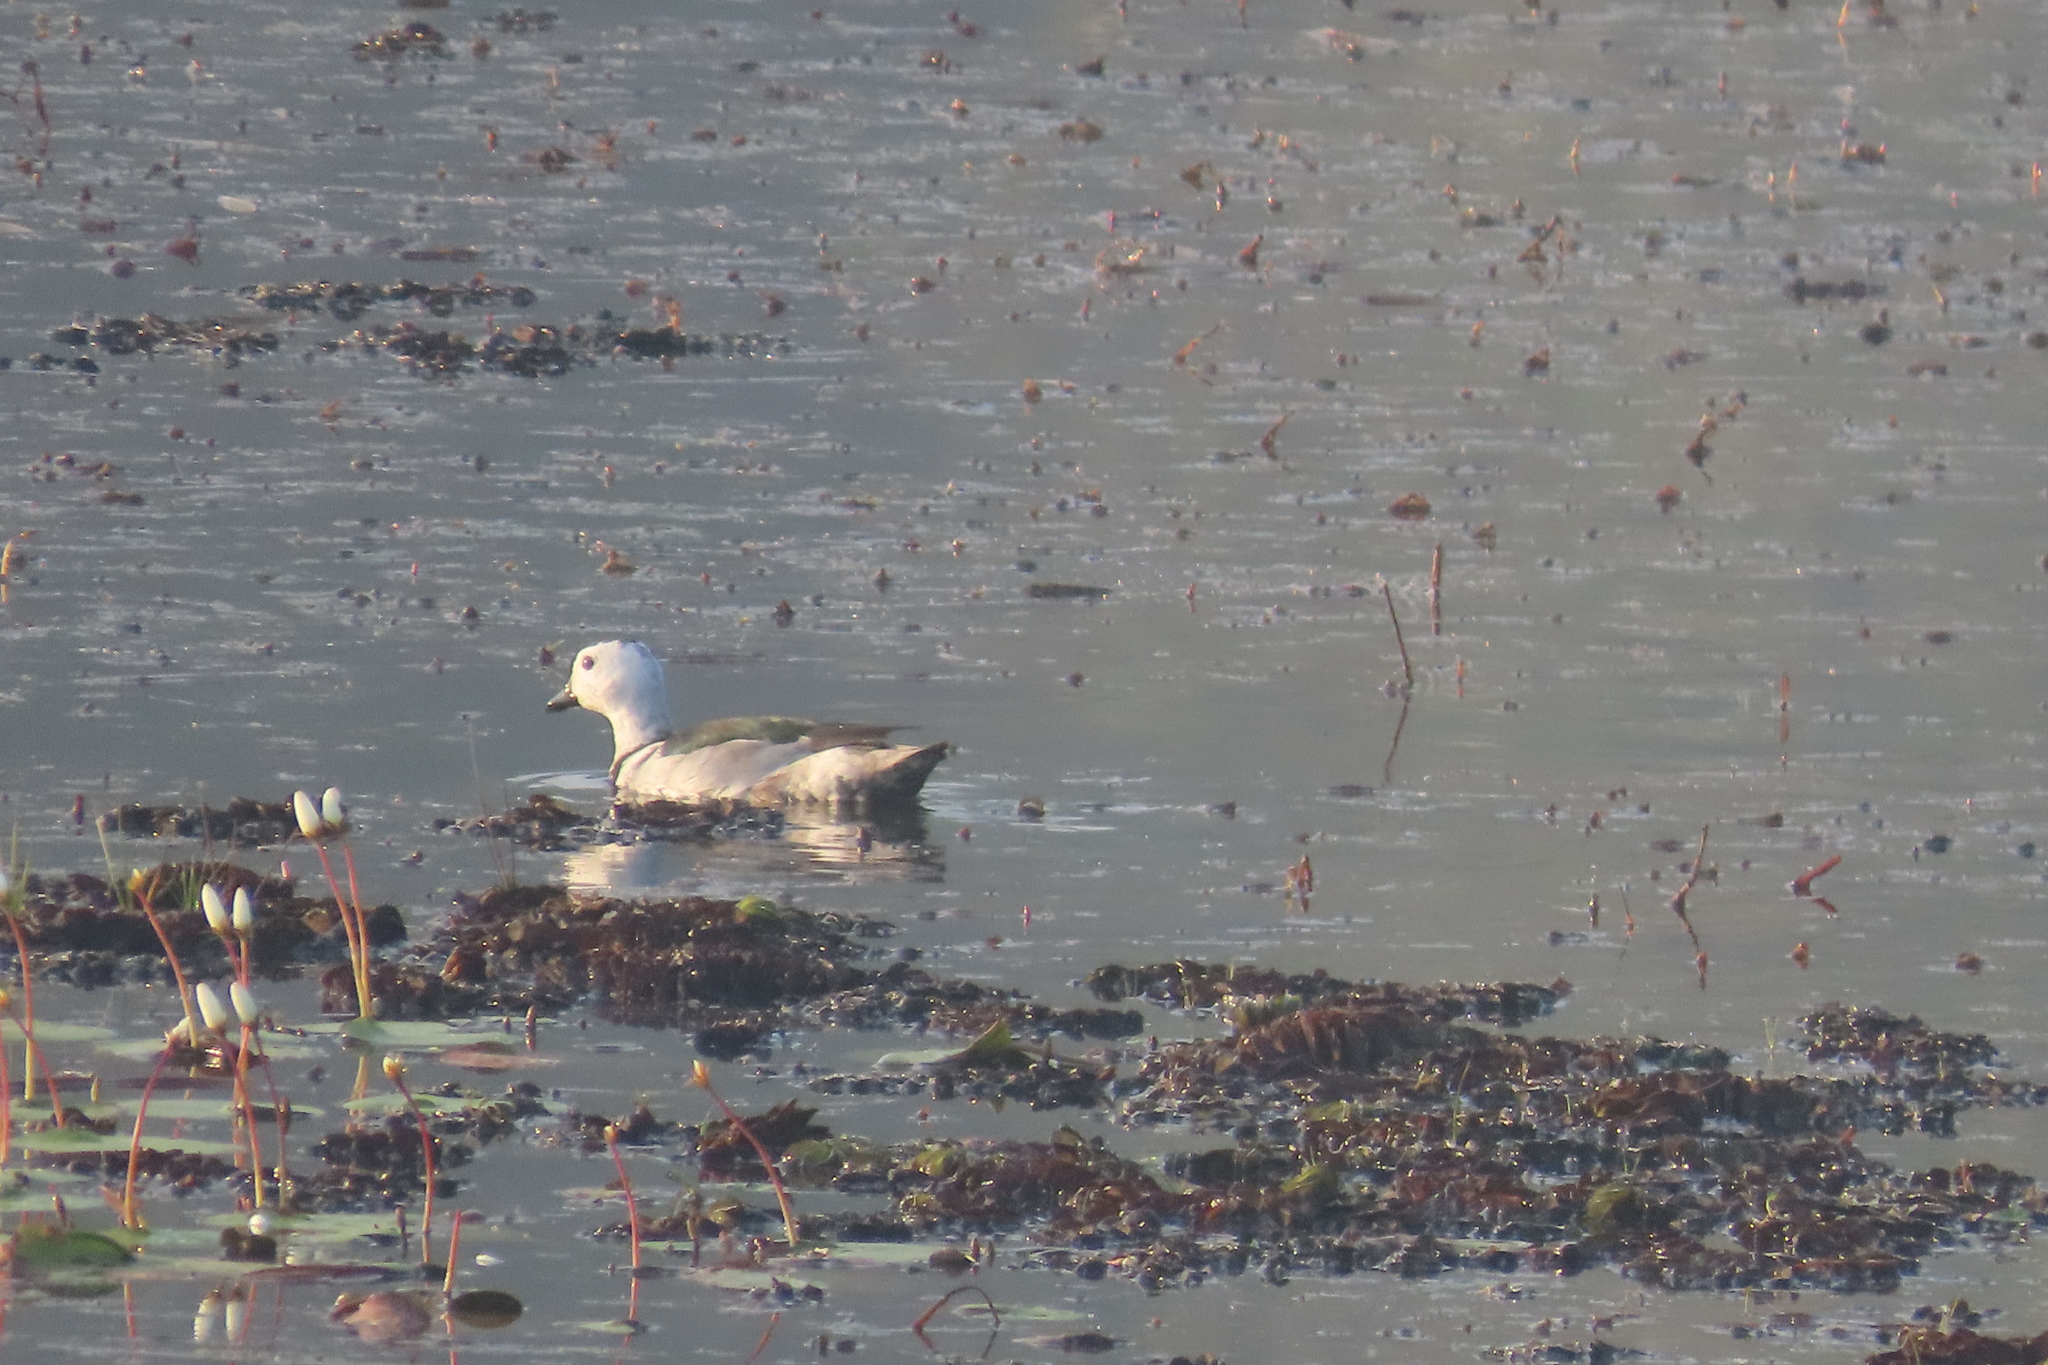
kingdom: Animalia
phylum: Chordata
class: Aves
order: Anseriformes
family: Anatidae
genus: Nettapus
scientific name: Nettapus coromandelianus
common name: Cotton pygmy-goose
